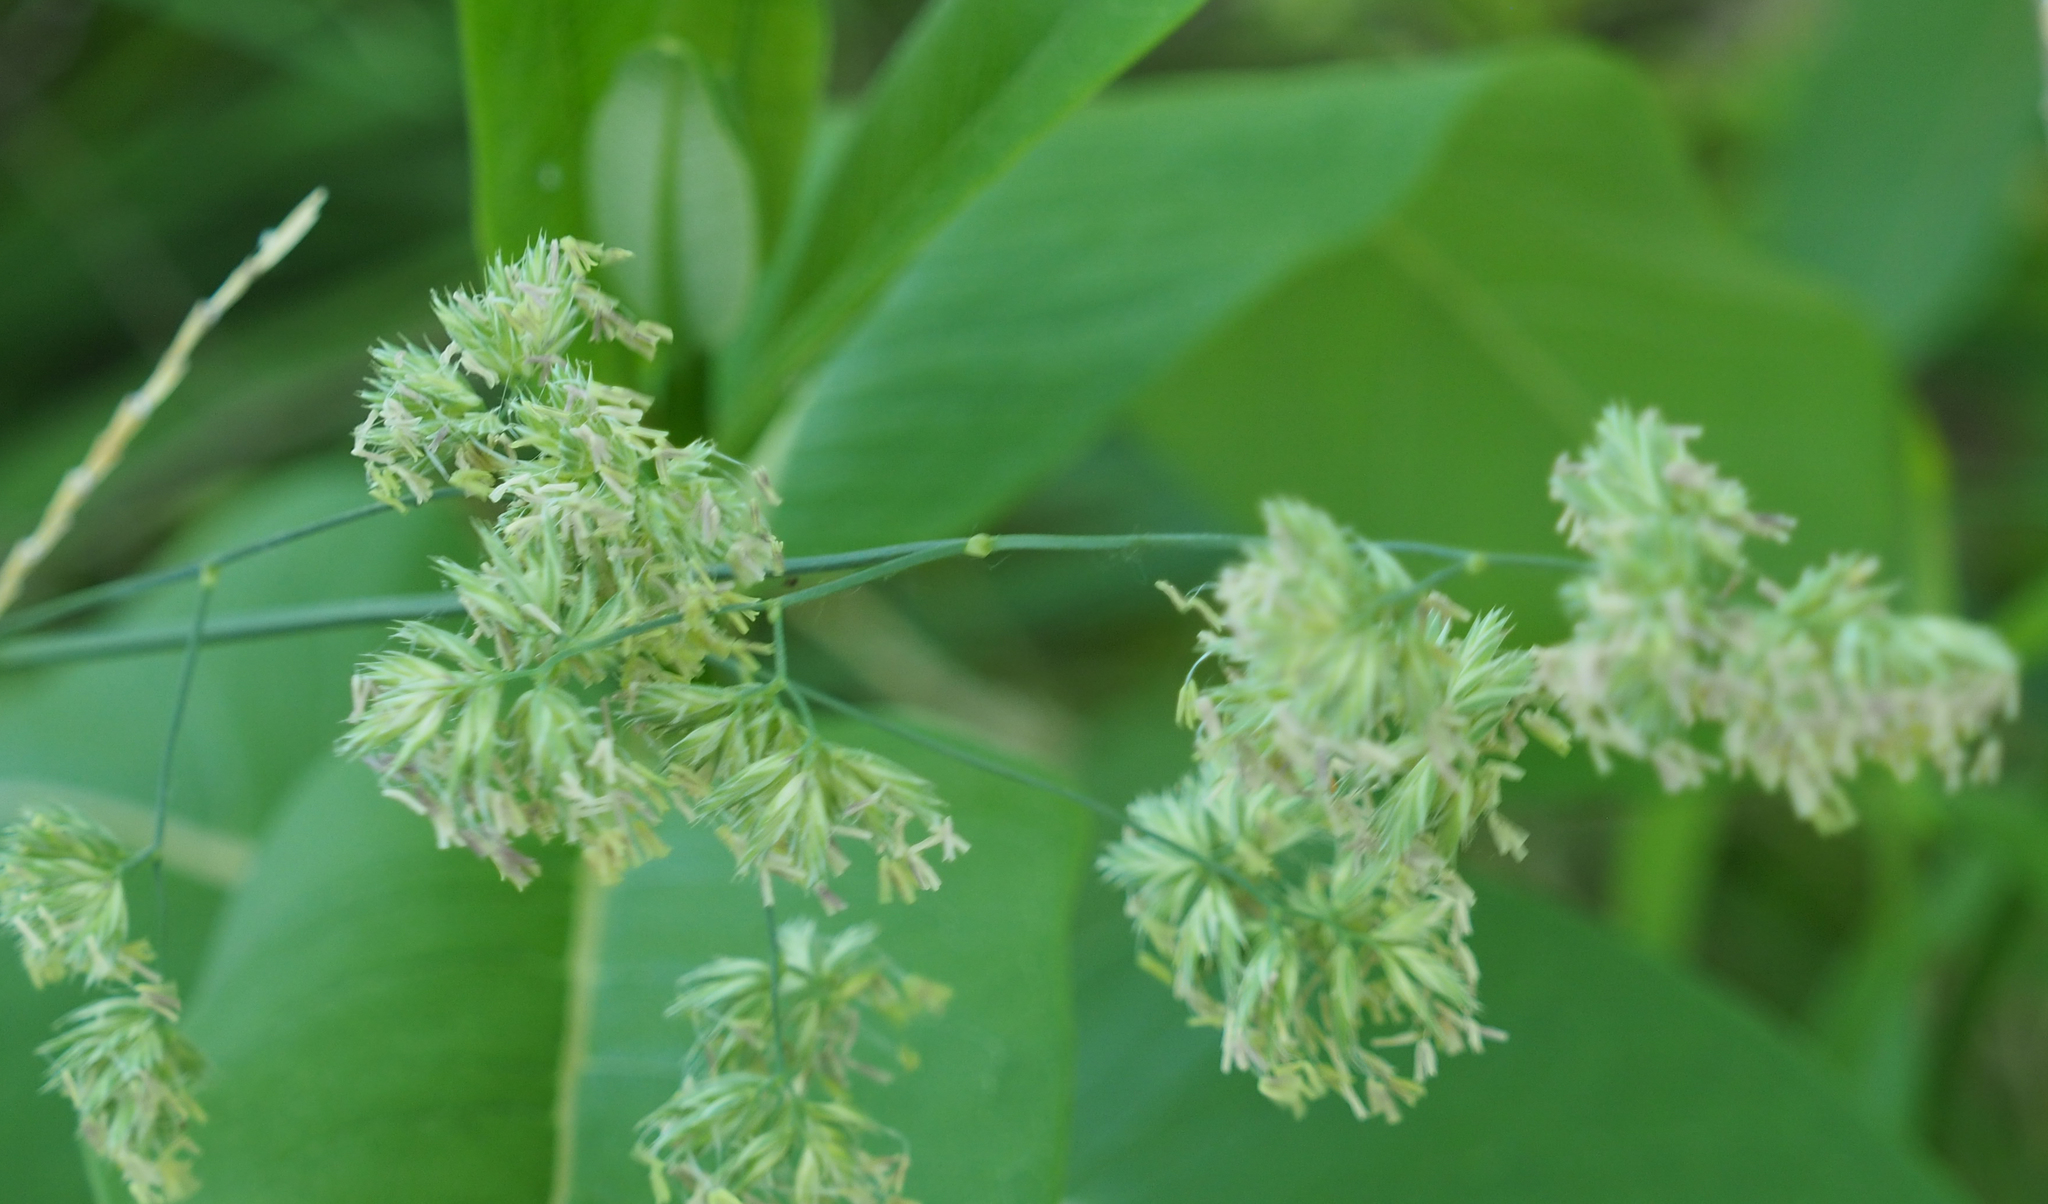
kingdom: Plantae
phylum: Tracheophyta
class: Liliopsida
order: Poales
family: Poaceae
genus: Dactylis
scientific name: Dactylis glomerata
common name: Orchardgrass
